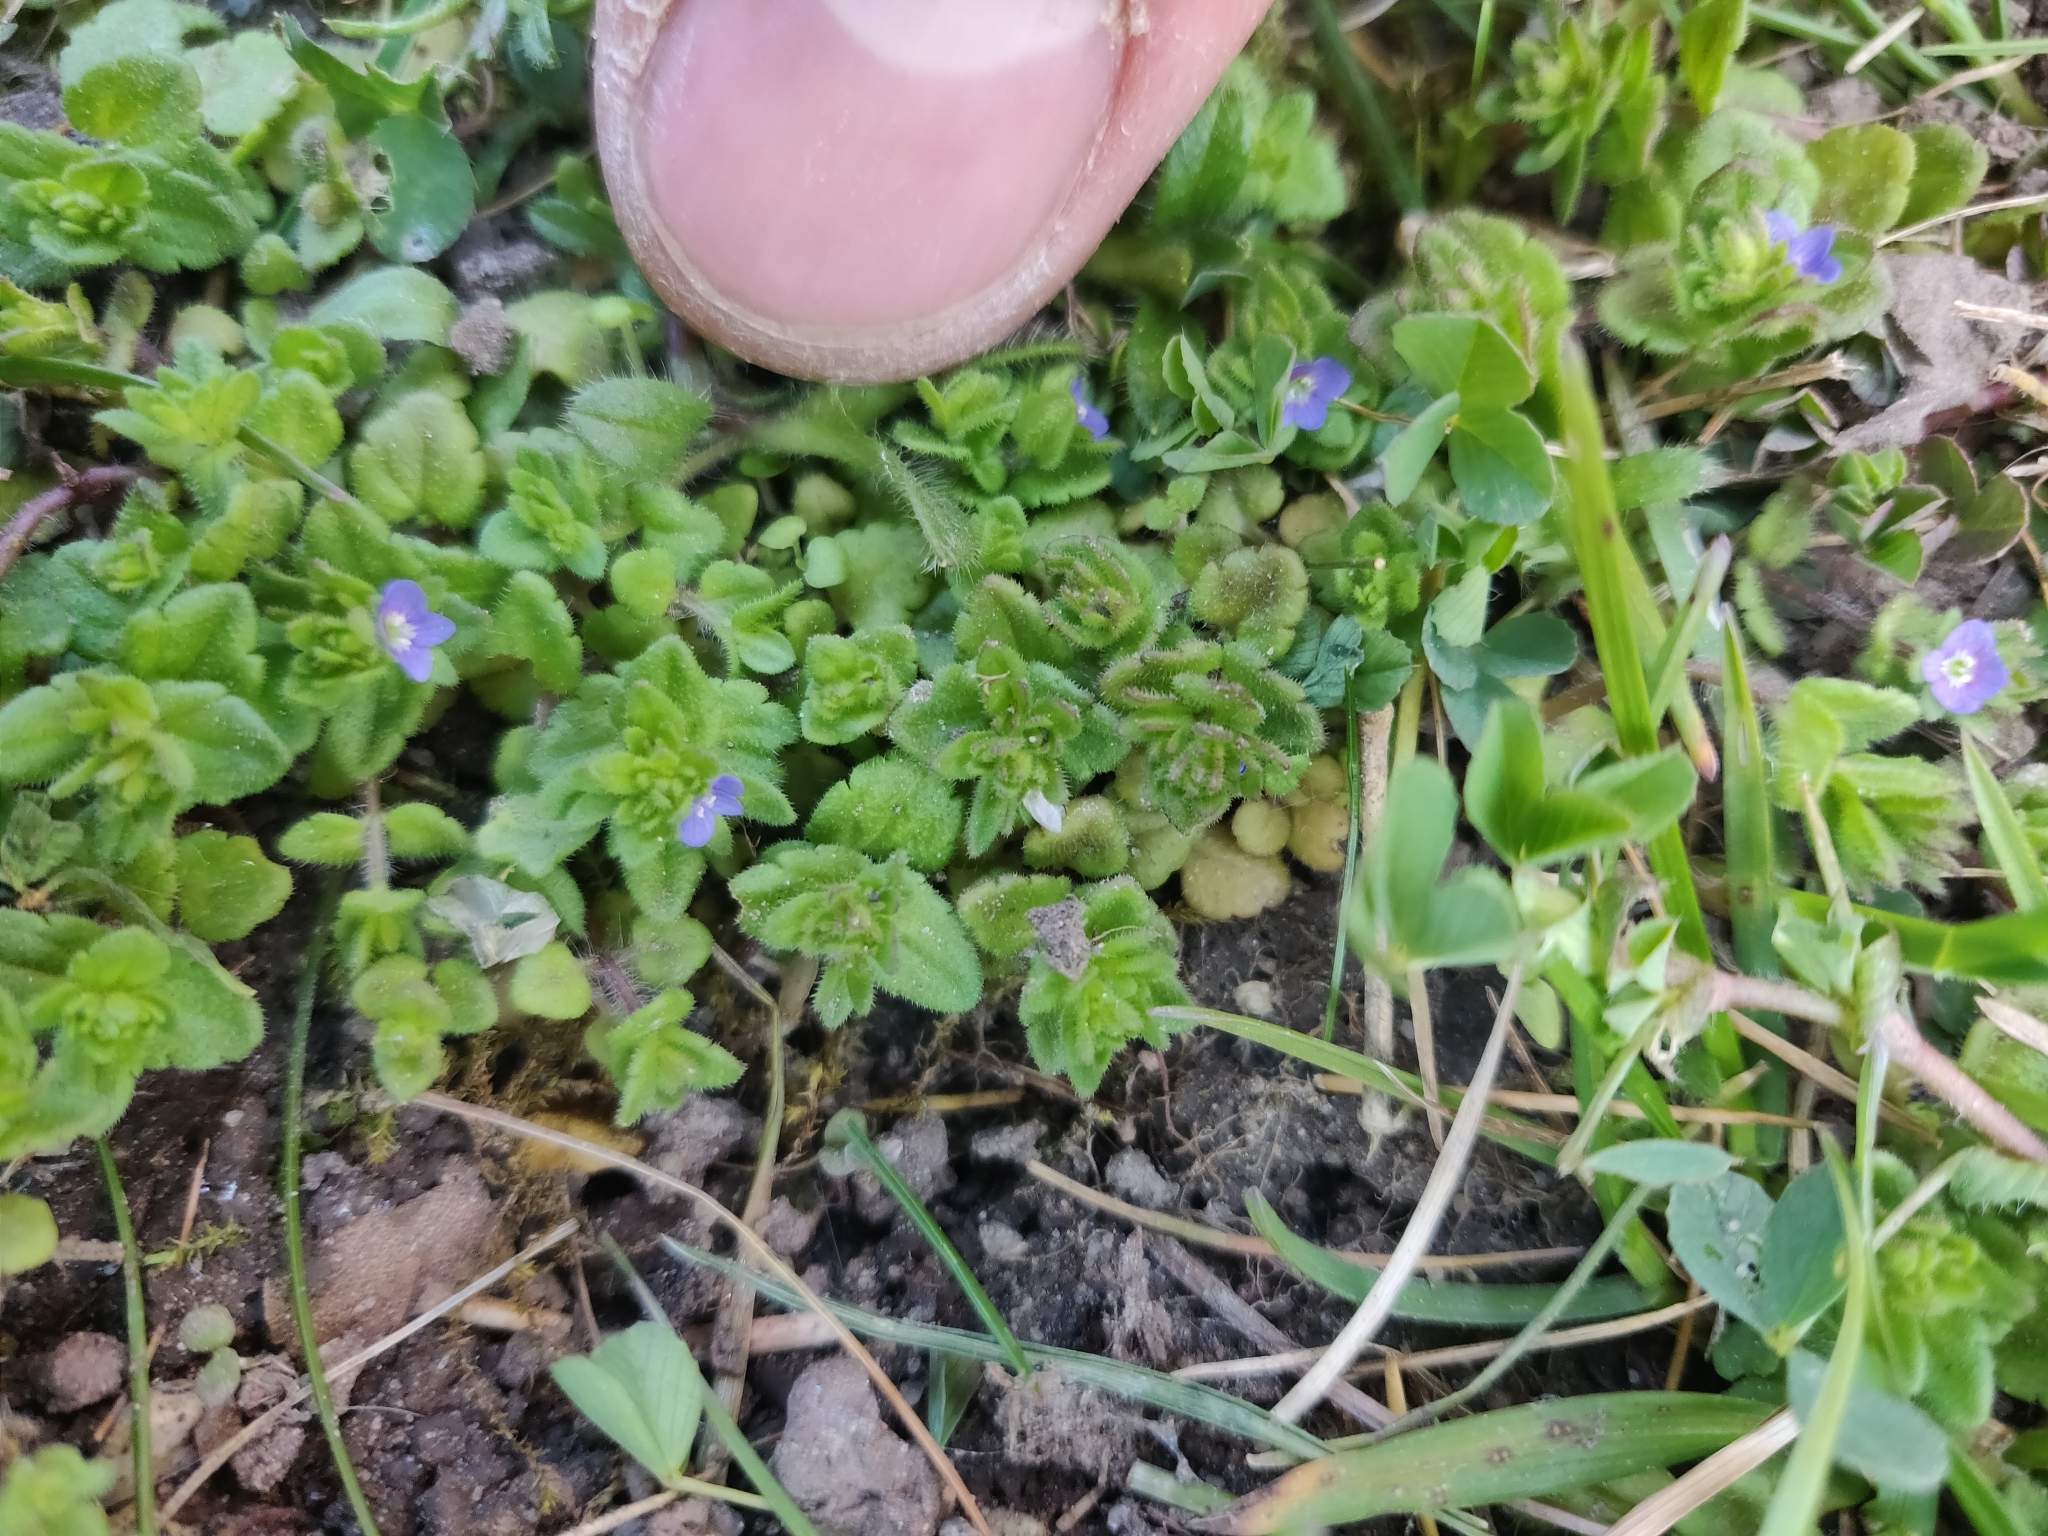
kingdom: Plantae
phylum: Tracheophyta
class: Magnoliopsida
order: Lamiales
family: Plantaginaceae
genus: Veronica
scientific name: Veronica arvensis
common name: Corn speedwell
